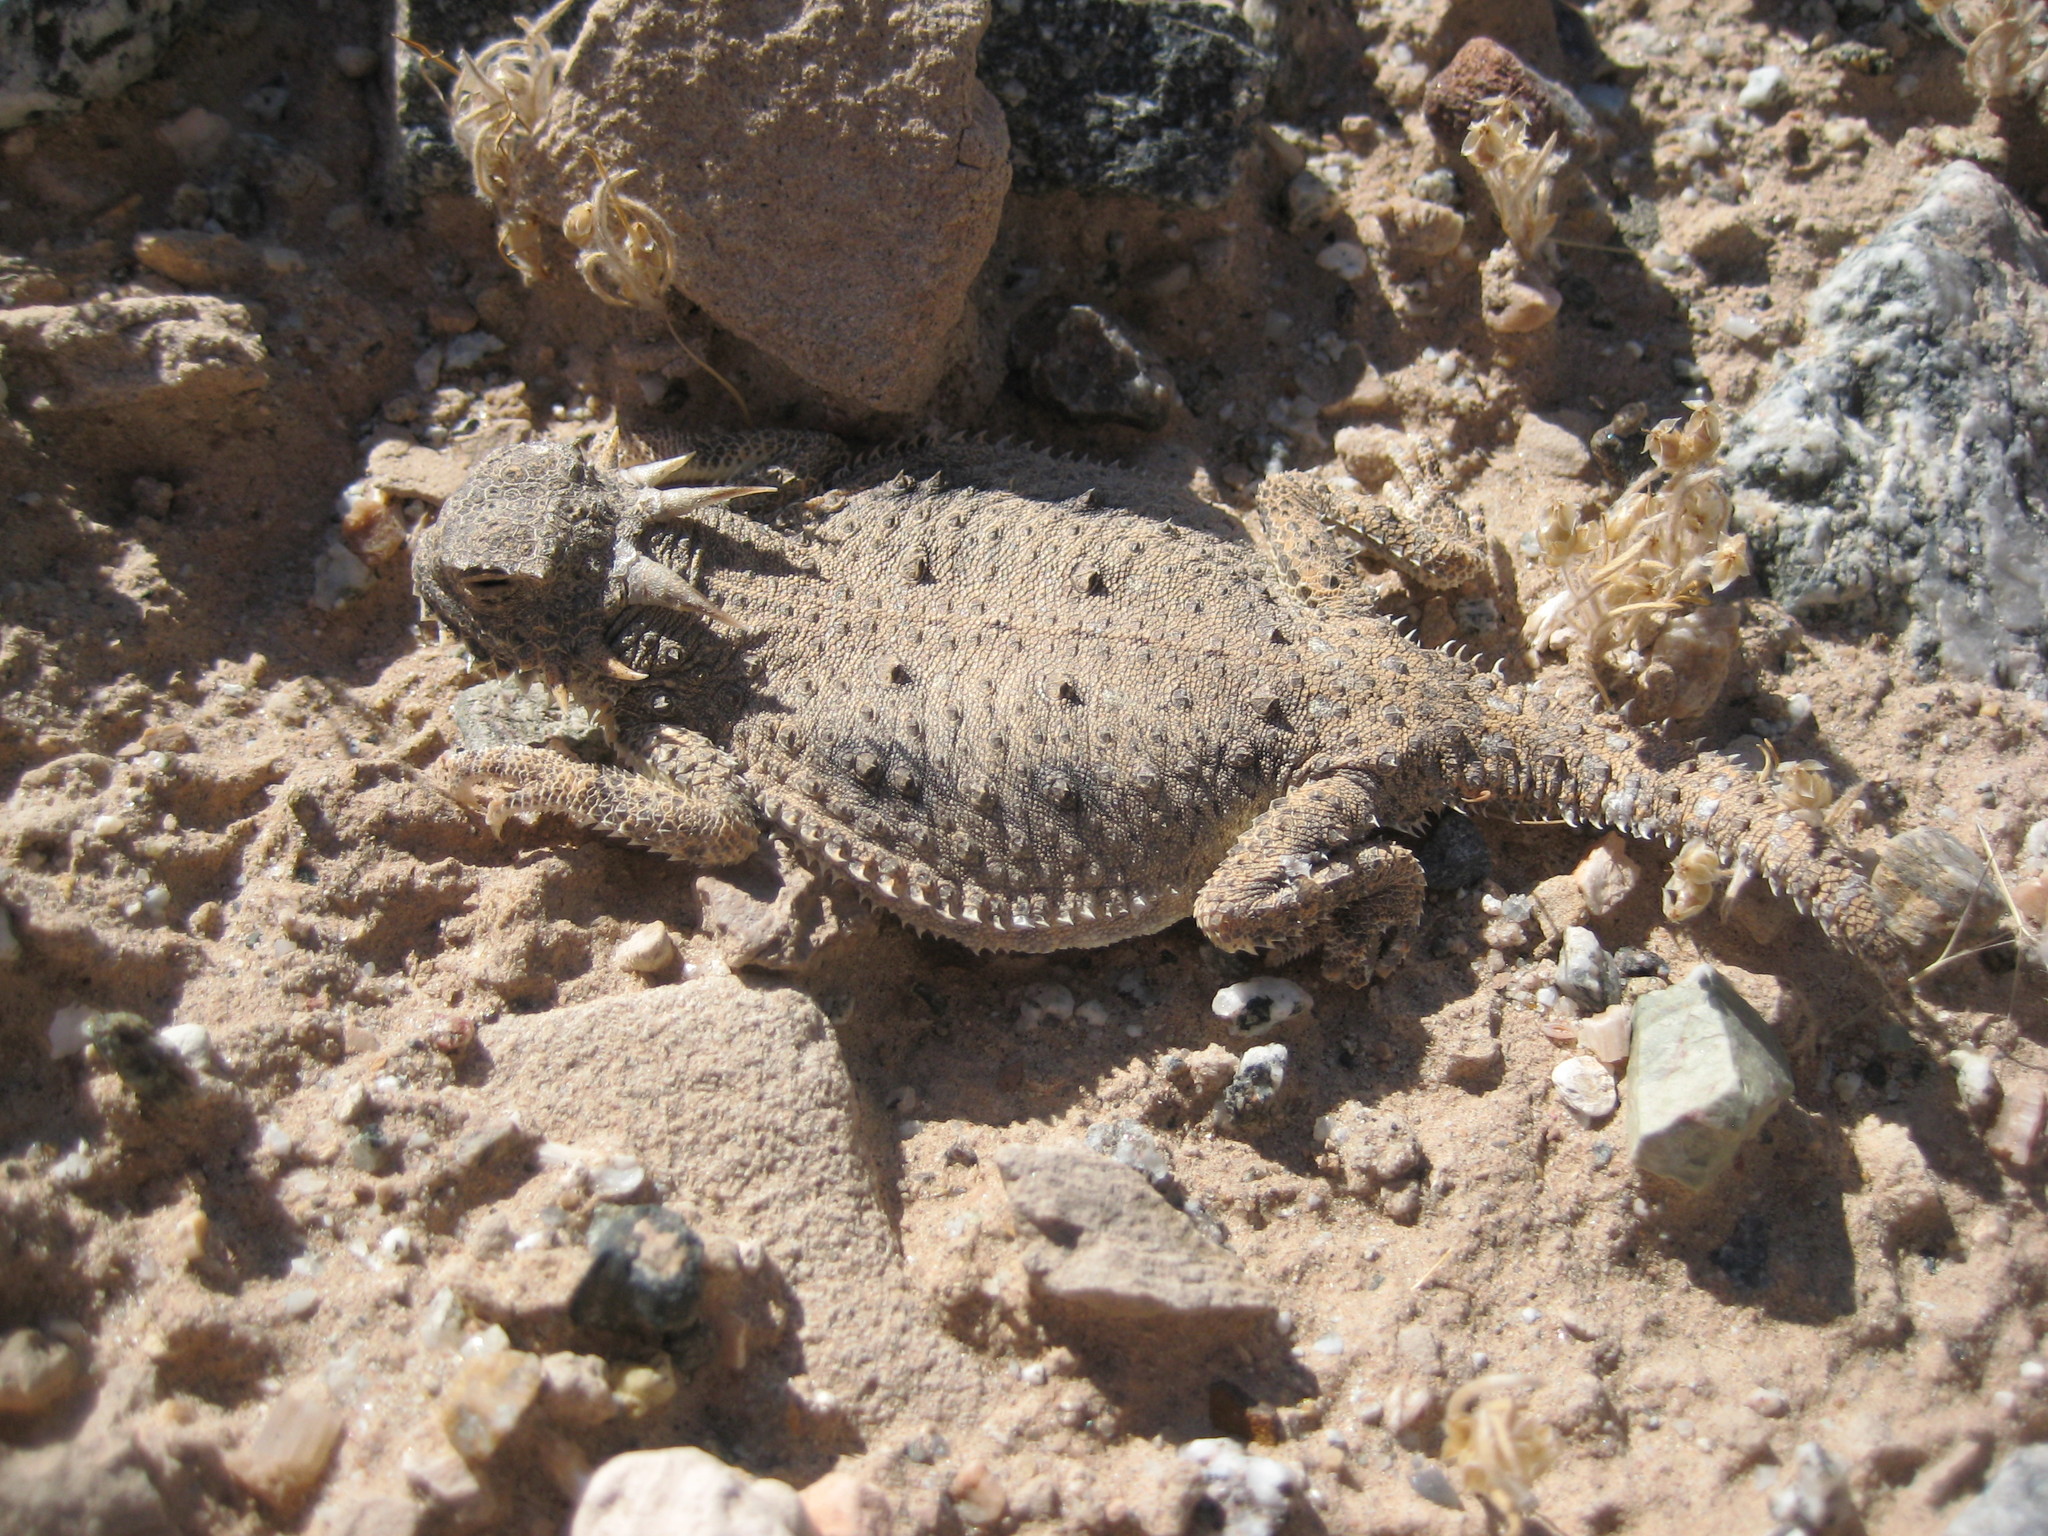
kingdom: Animalia
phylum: Chordata
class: Squamata
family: Phrynosomatidae
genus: Phrynosoma
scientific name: Phrynosoma mcallii
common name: Flat-tailed horned lizard
